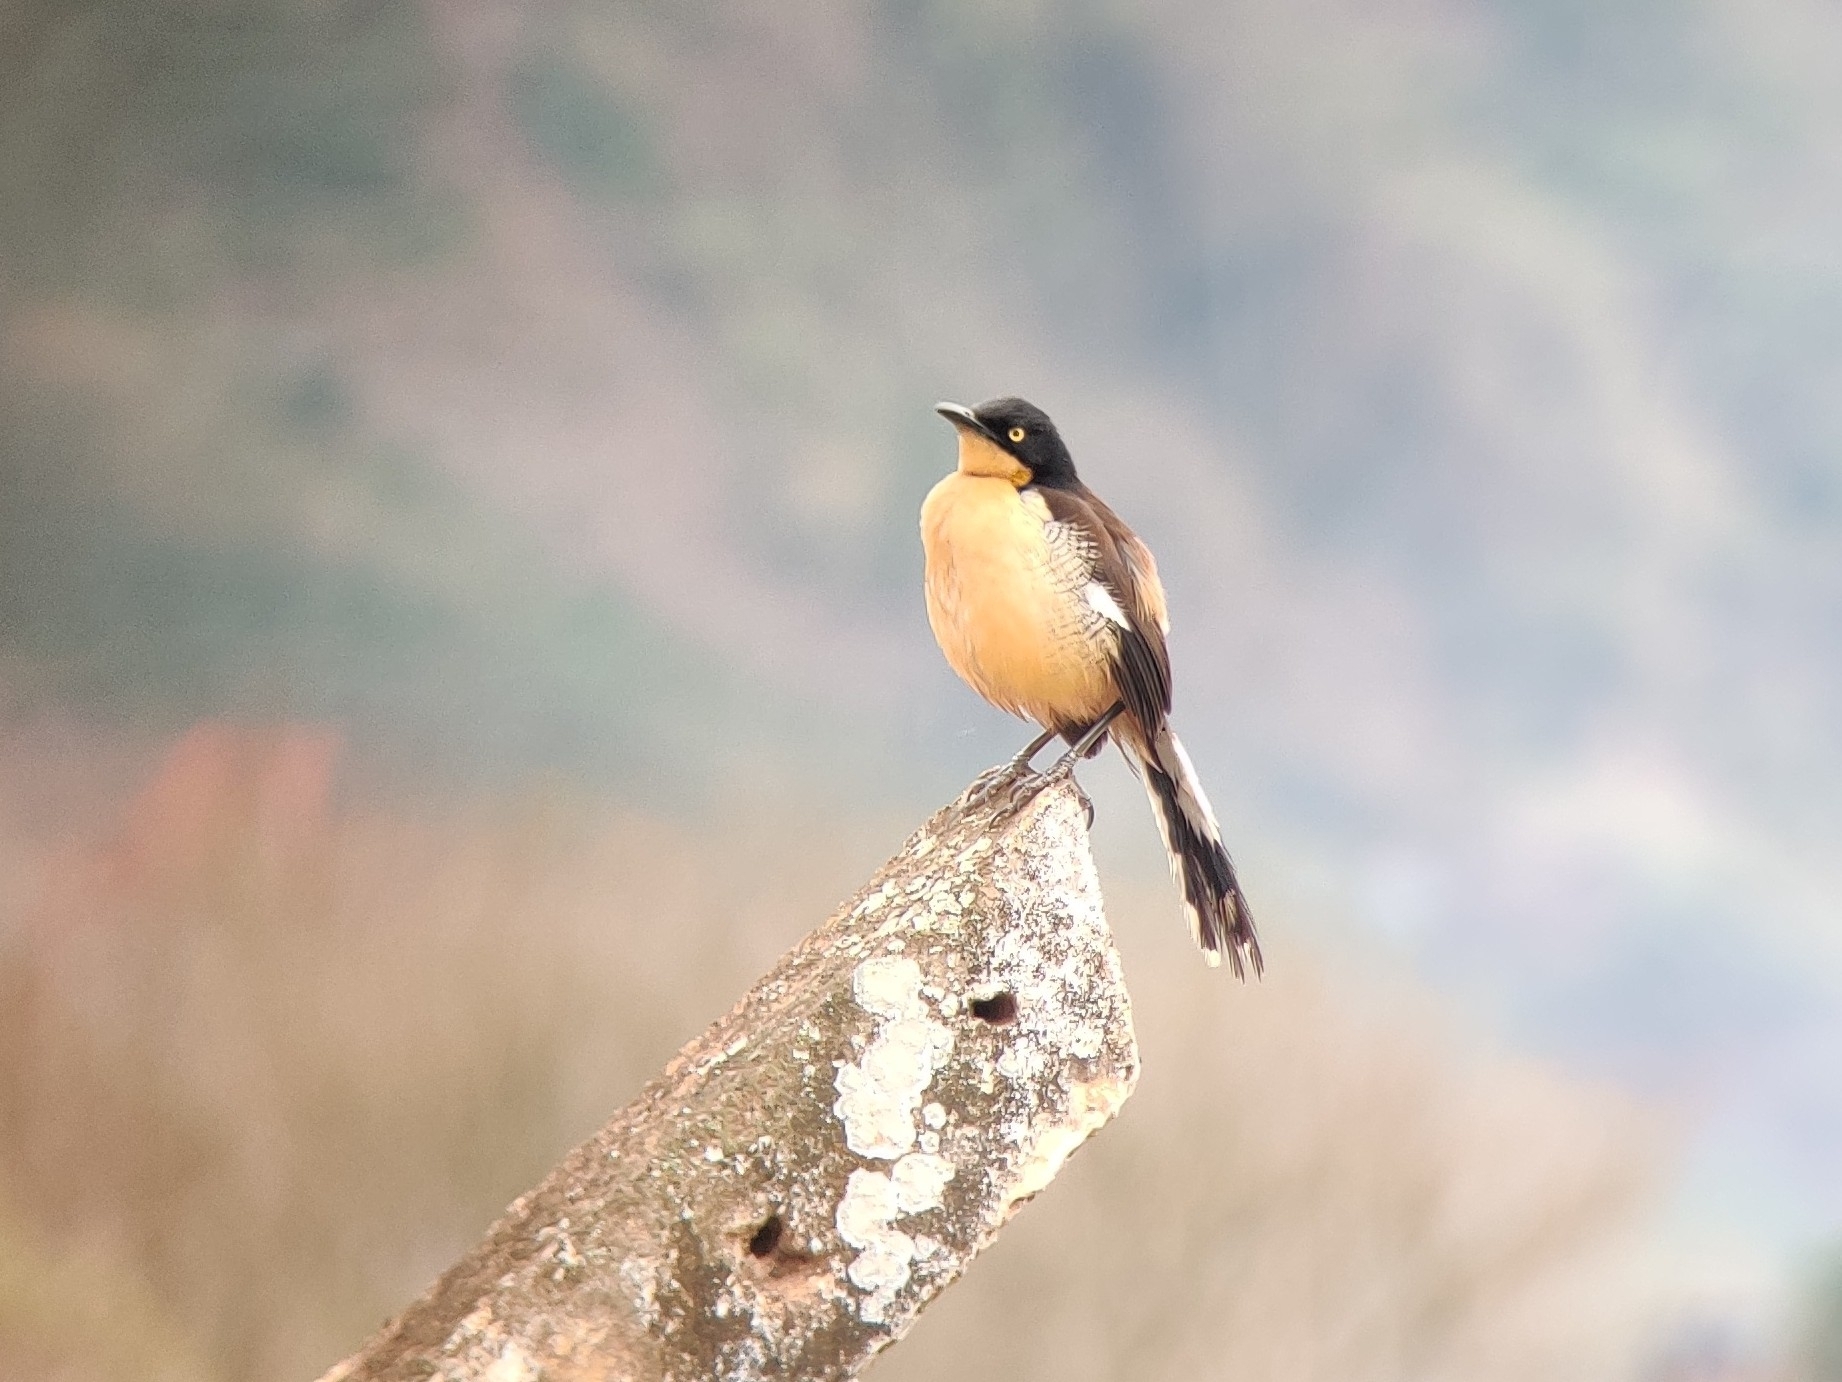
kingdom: Animalia
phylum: Chordata
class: Aves
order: Passeriformes
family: Donacobiidae
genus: Donacobius
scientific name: Donacobius atricapilla
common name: Black-capped donacobius
